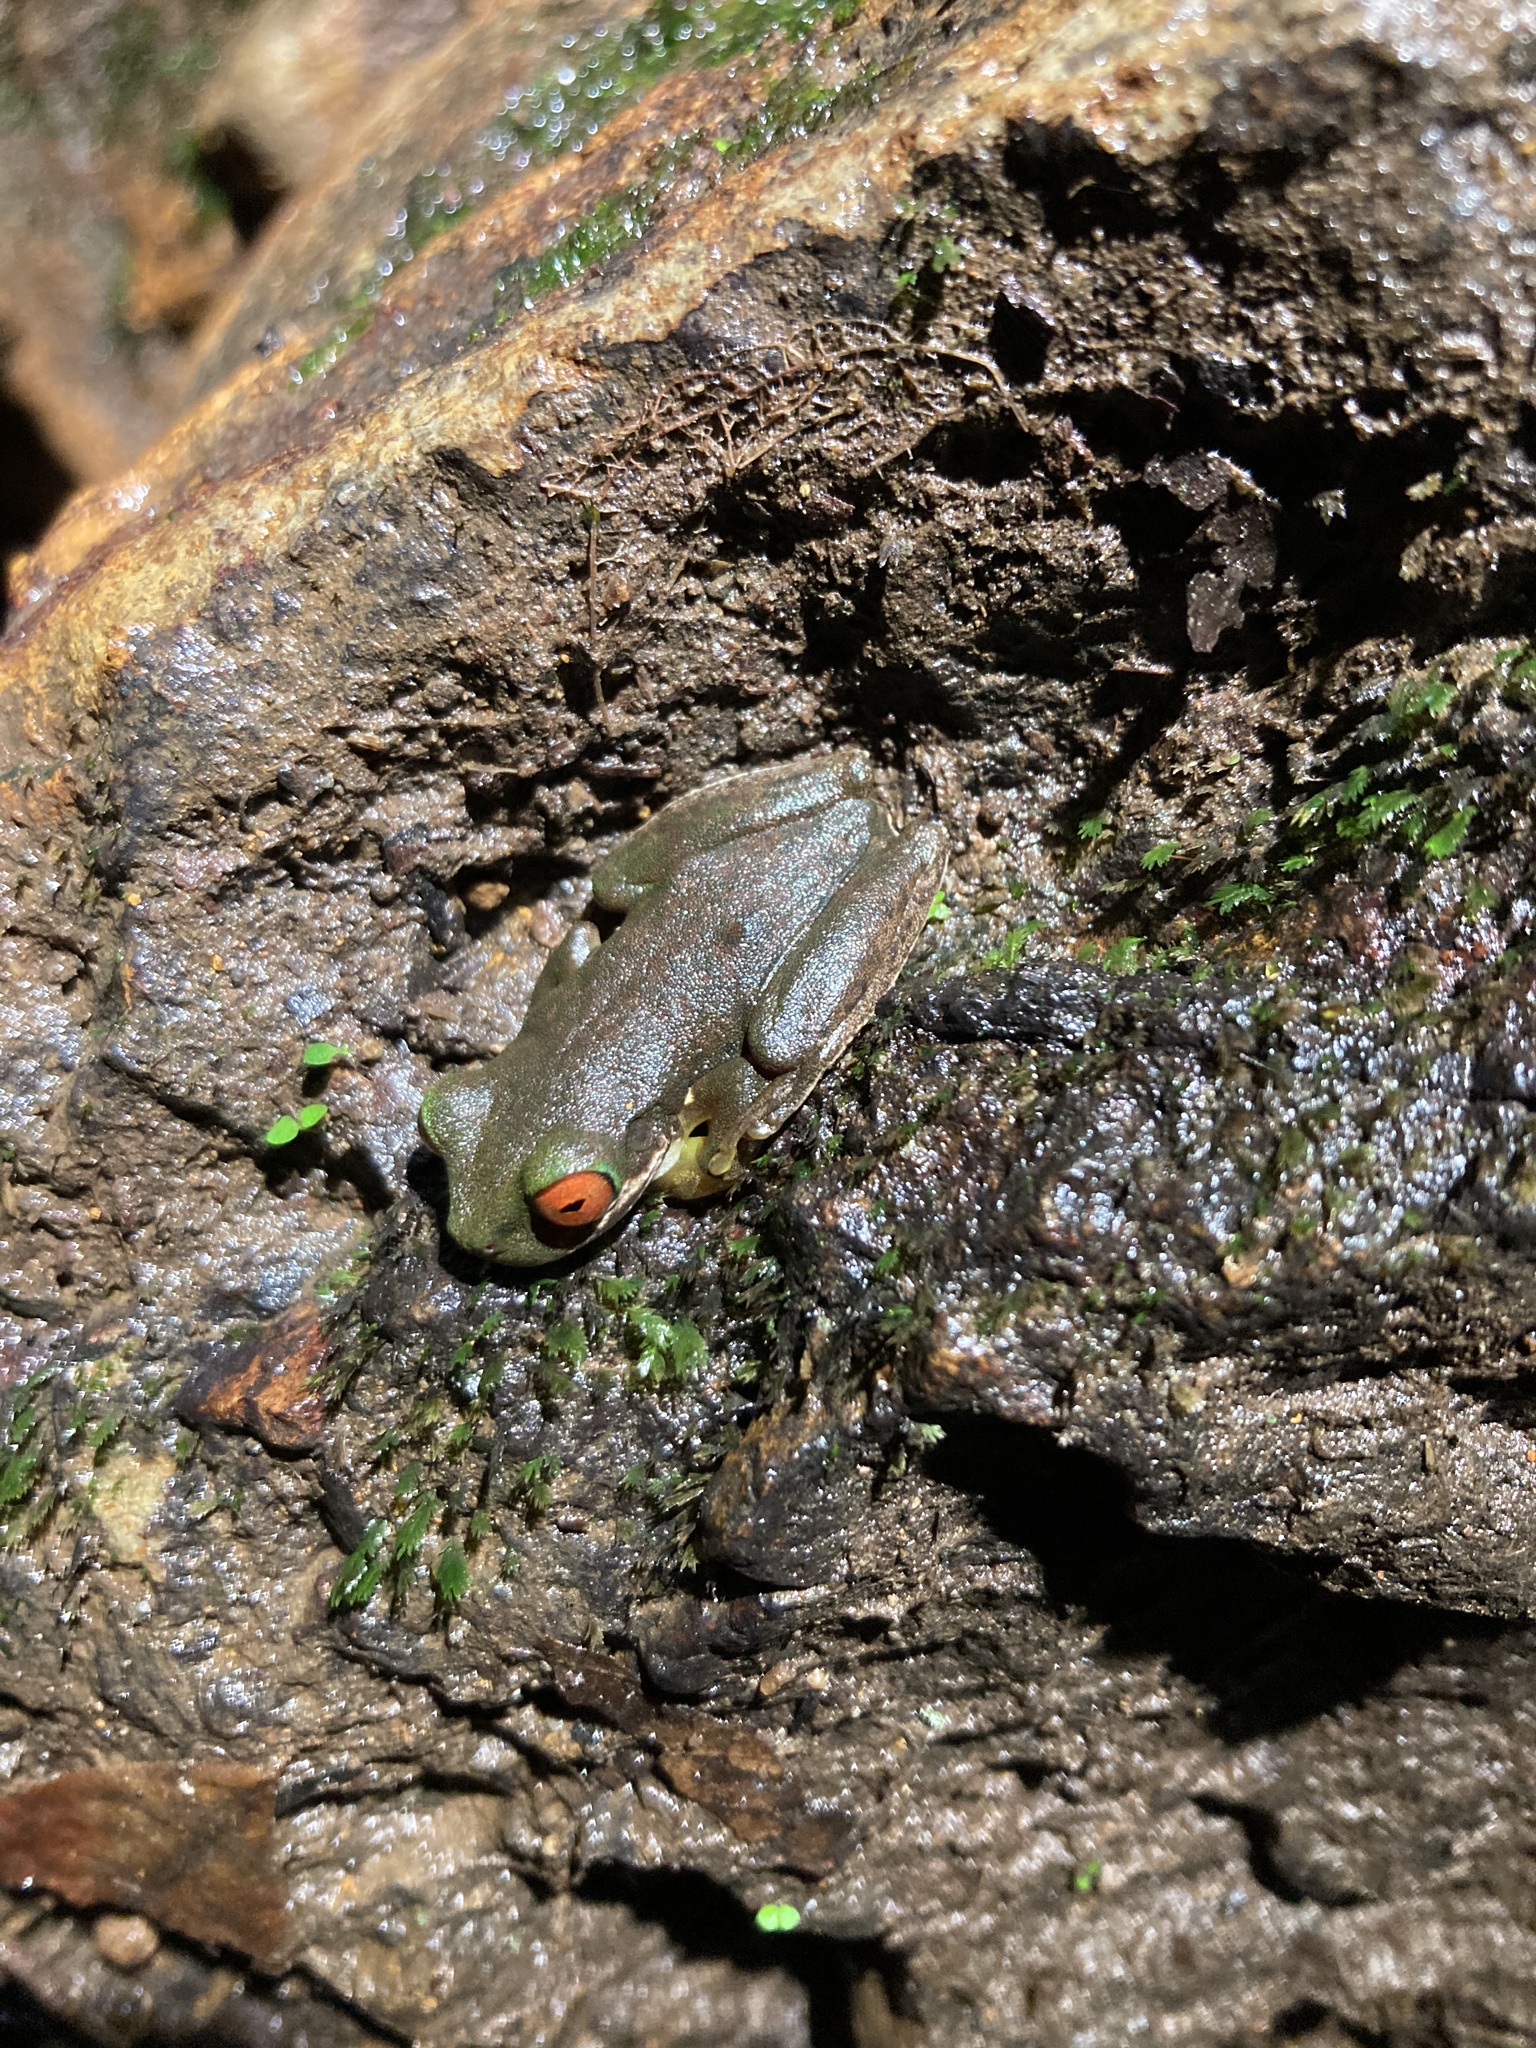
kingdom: Animalia
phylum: Chordata
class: Amphibia
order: Anura
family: Hylidae
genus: Duellmanohyla
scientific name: Duellmanohyla rufioculis
